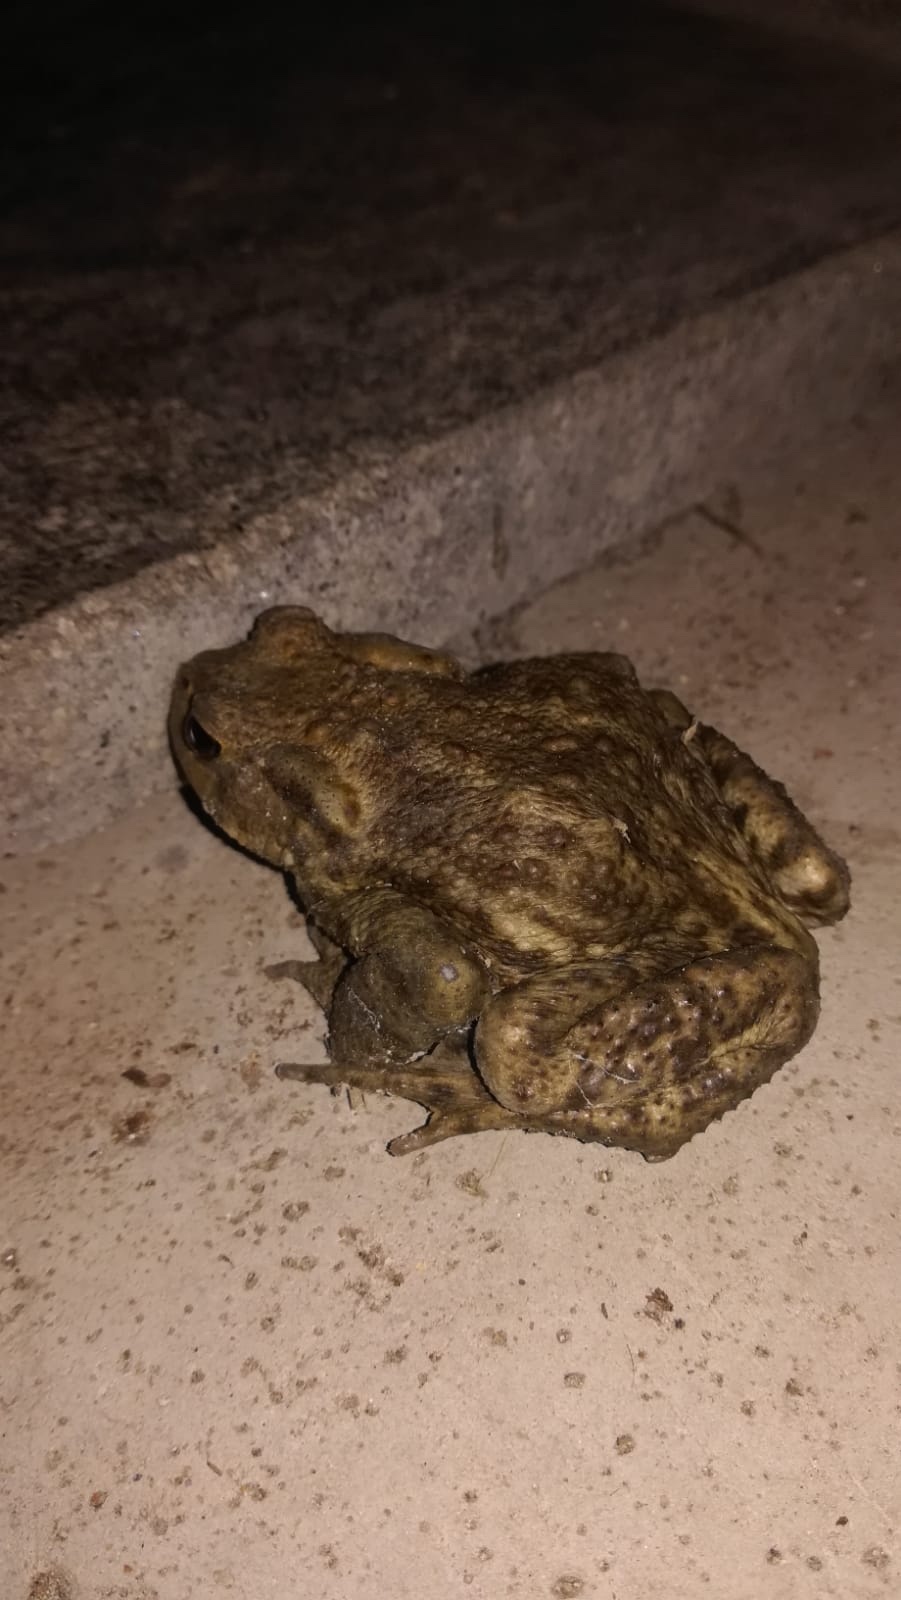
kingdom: Animalia
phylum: Chordata
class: Amphibia
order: Anura
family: Bufonidae
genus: Bufo
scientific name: Bufo bufo
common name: Common toad
